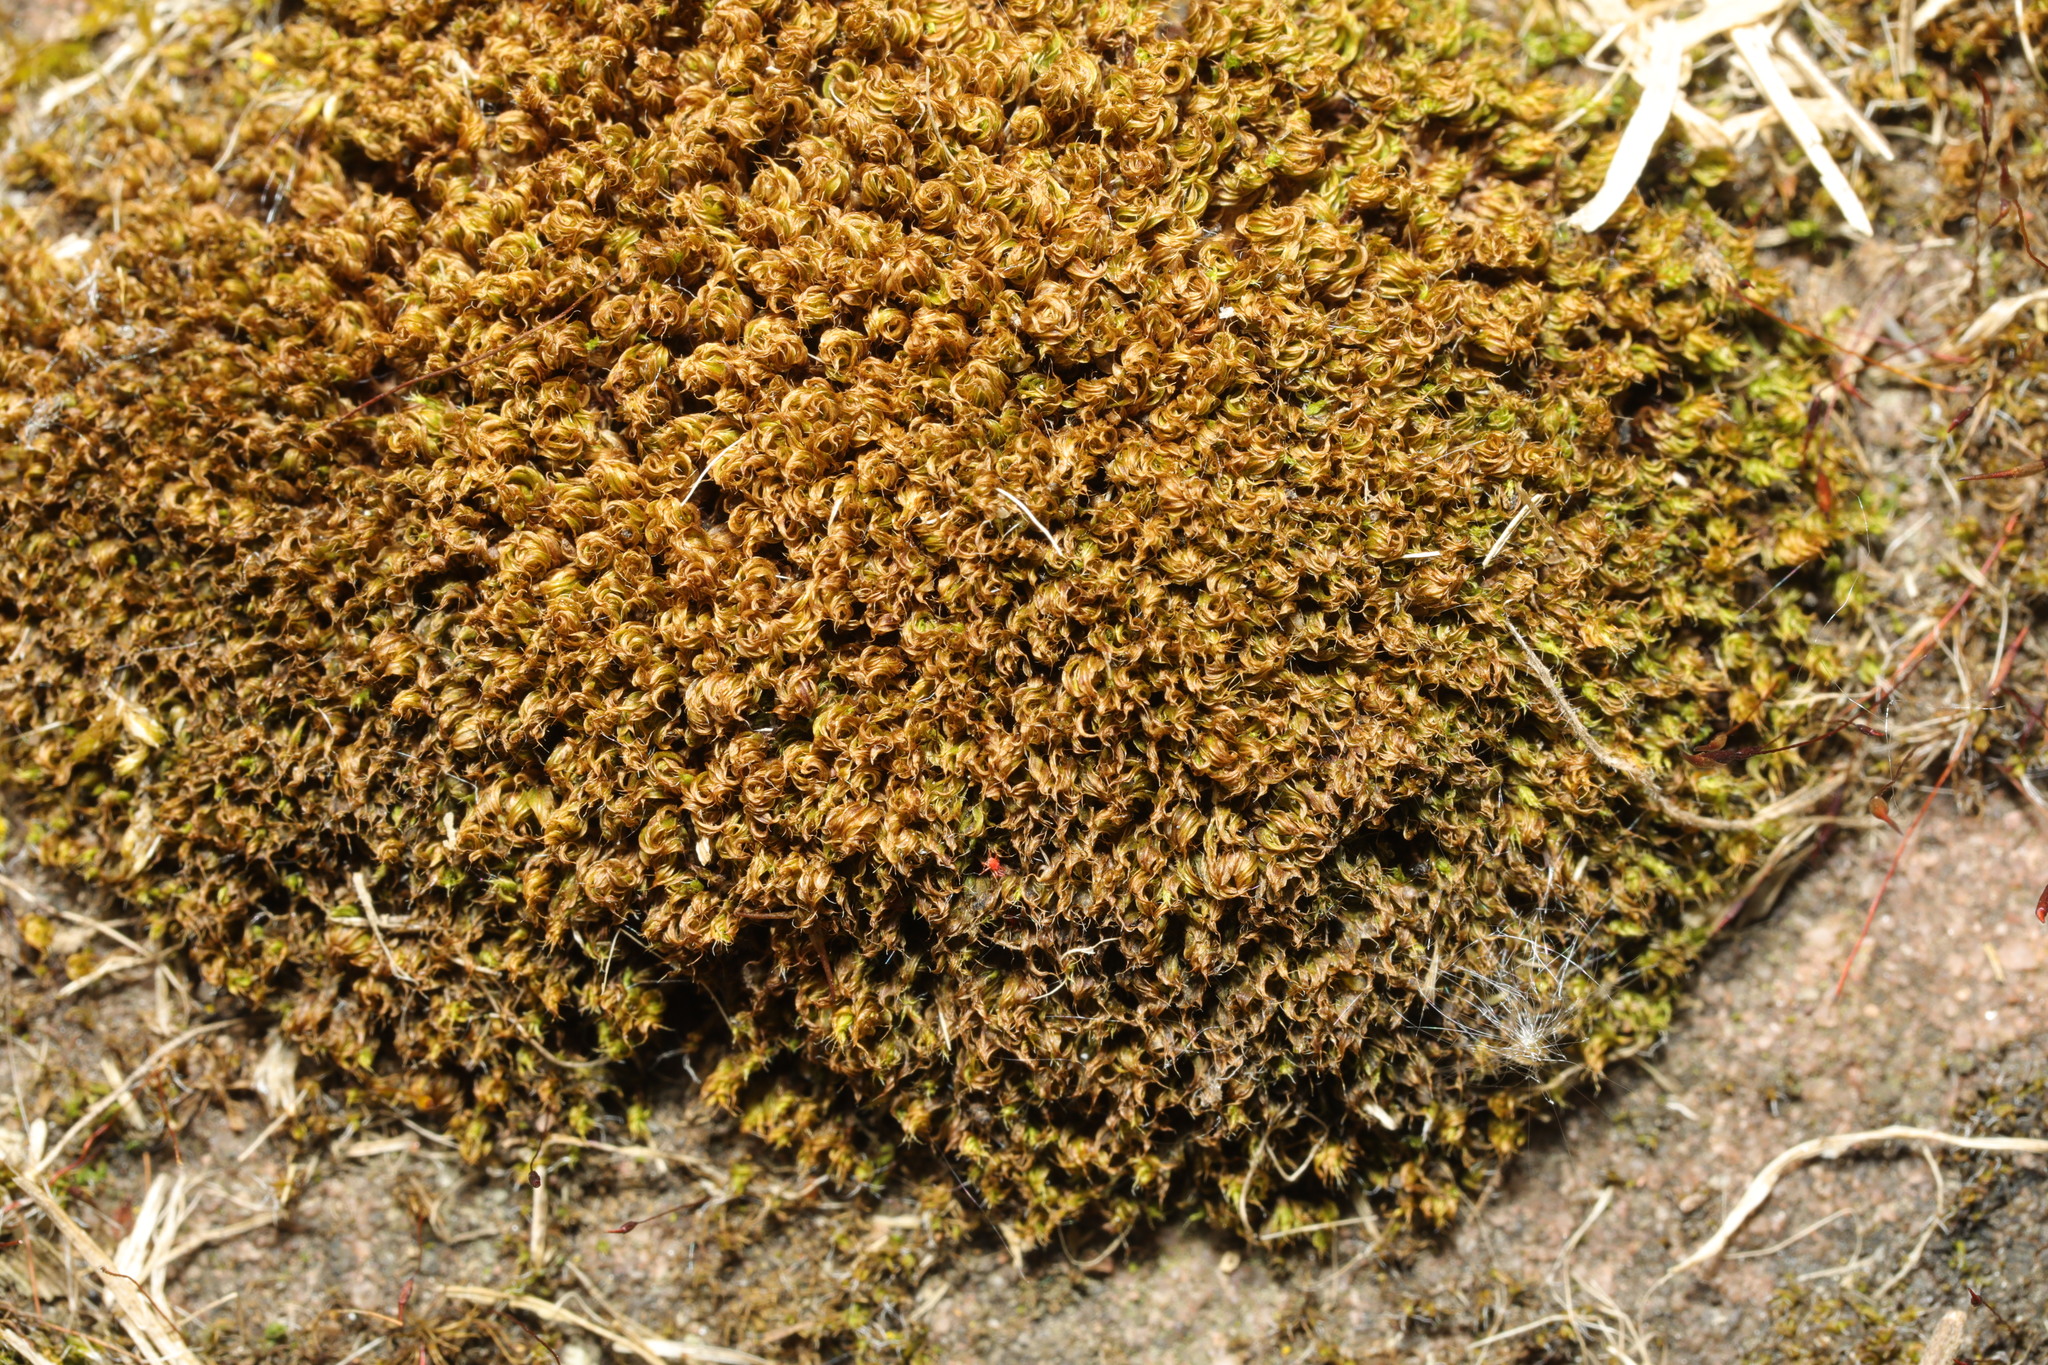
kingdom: Plantae
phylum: Bryophyta
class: Bryopsida
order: Bryales
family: Bryaceae
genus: Rosulabryum
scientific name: Rosulabryum capillare
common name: Capillary thread-moss
